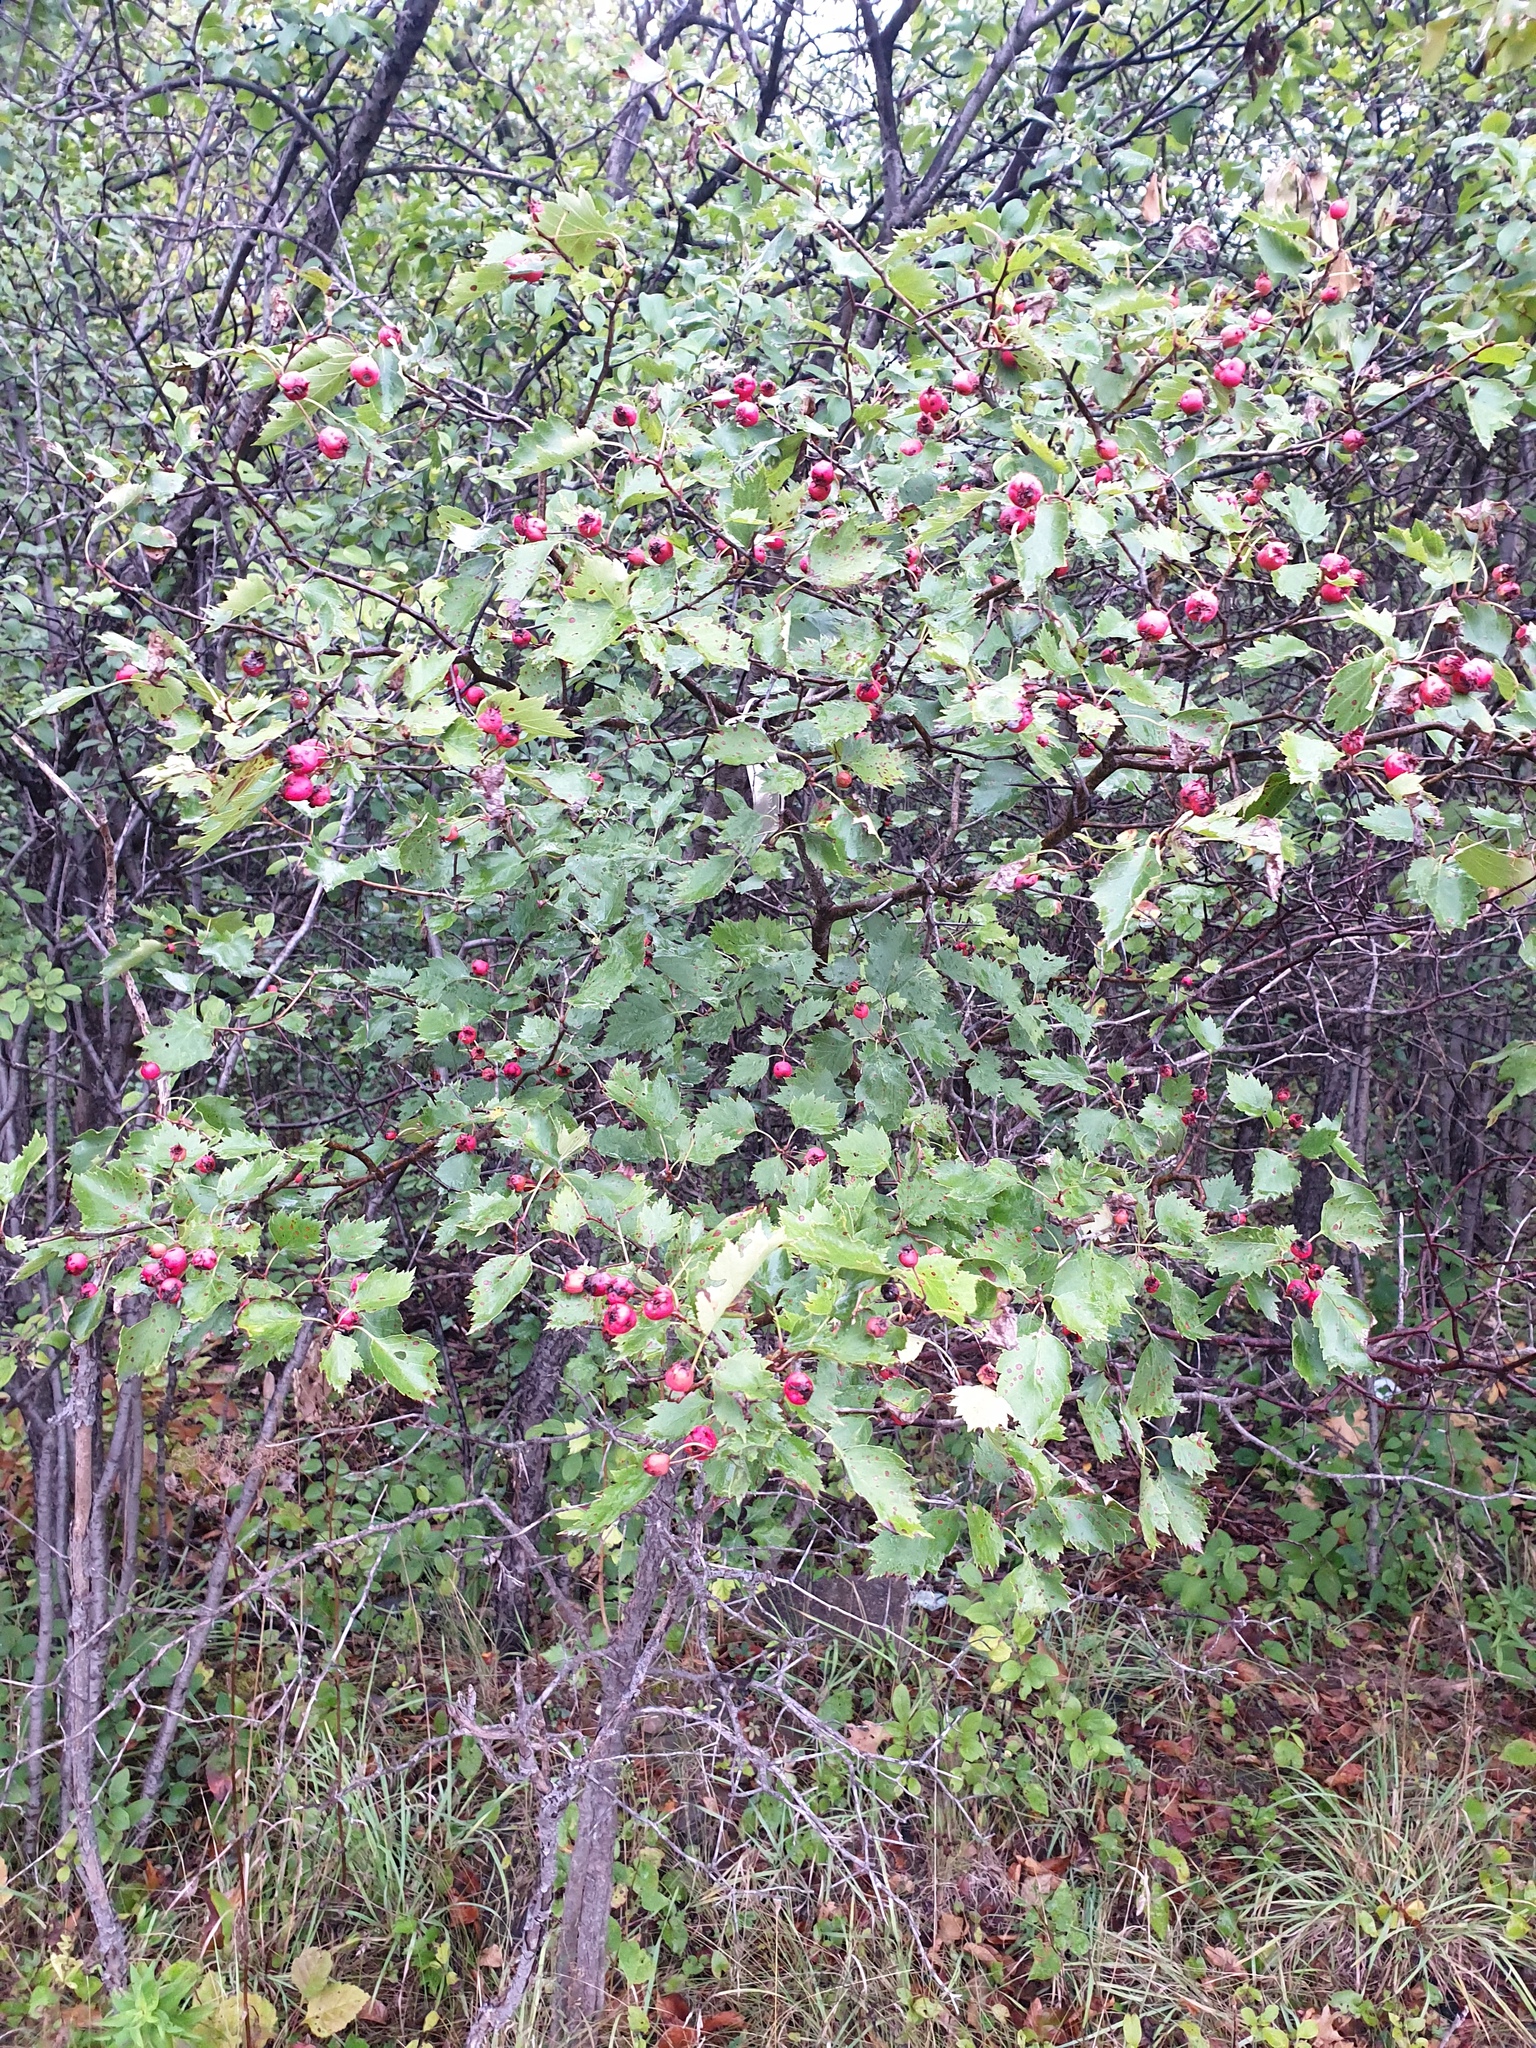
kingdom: Plantae
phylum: Tracheophyta
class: Magnoliopsida
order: Rosales
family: Rosaceae
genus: Crataegus
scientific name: Crataegus flabellata
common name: Bosc's hawthorn
